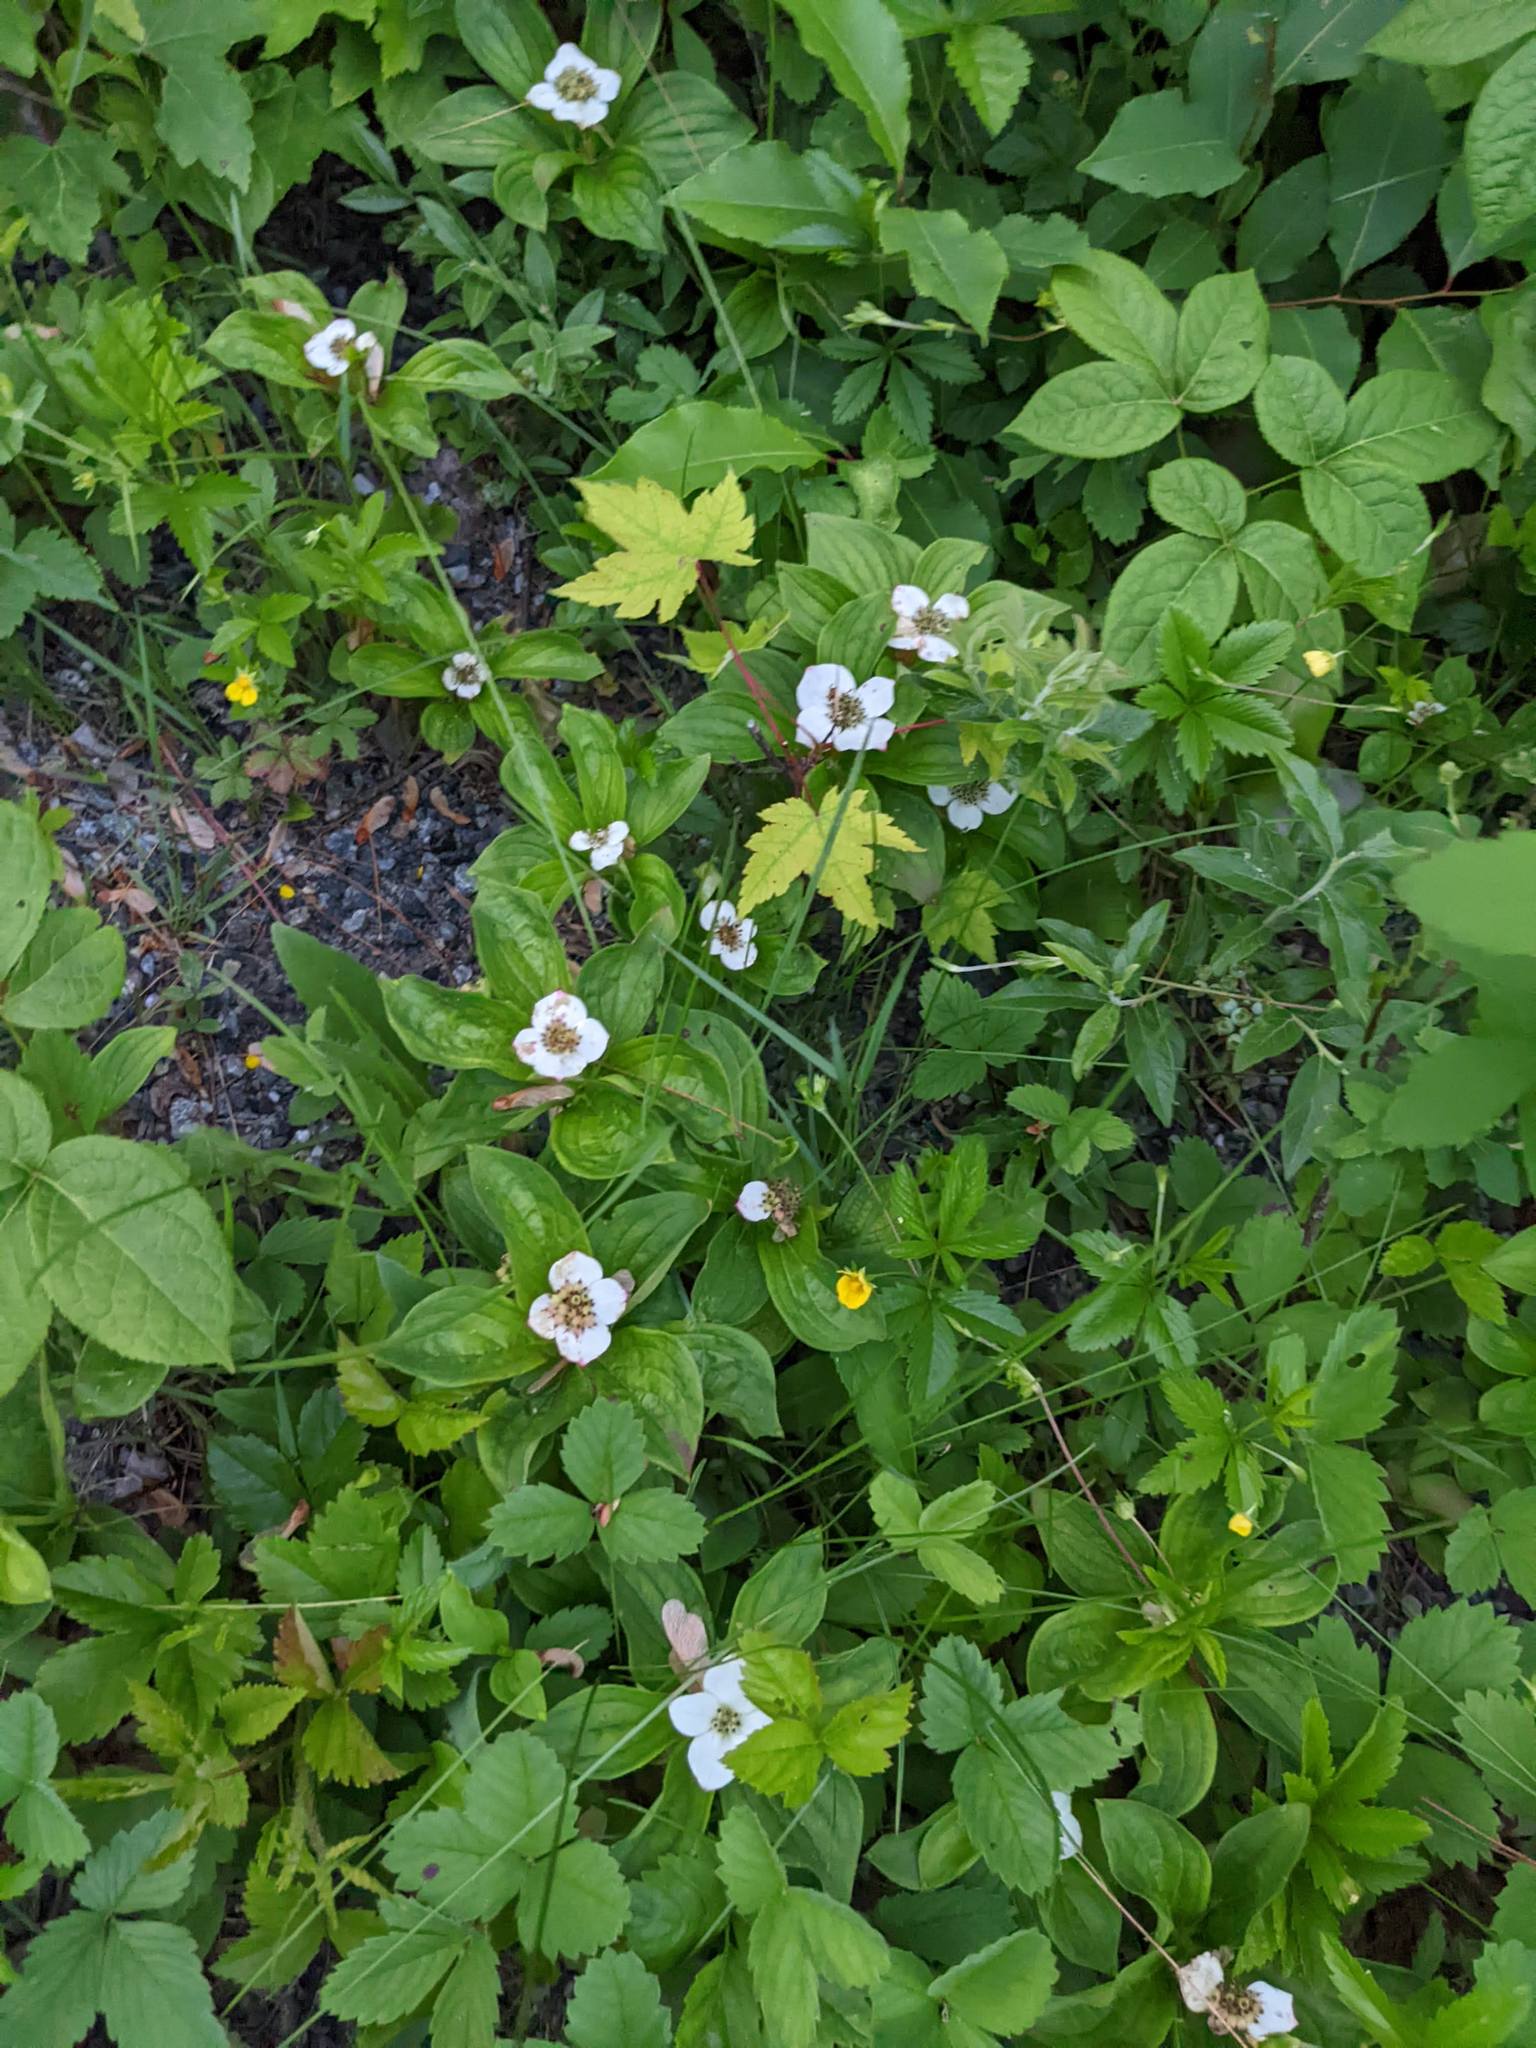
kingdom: Plantae
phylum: Tracheophyta
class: Magnoliopsida
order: Cornales
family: Cornaceae
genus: Cornus
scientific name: Cornus canadensis
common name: Creeping dogwood
